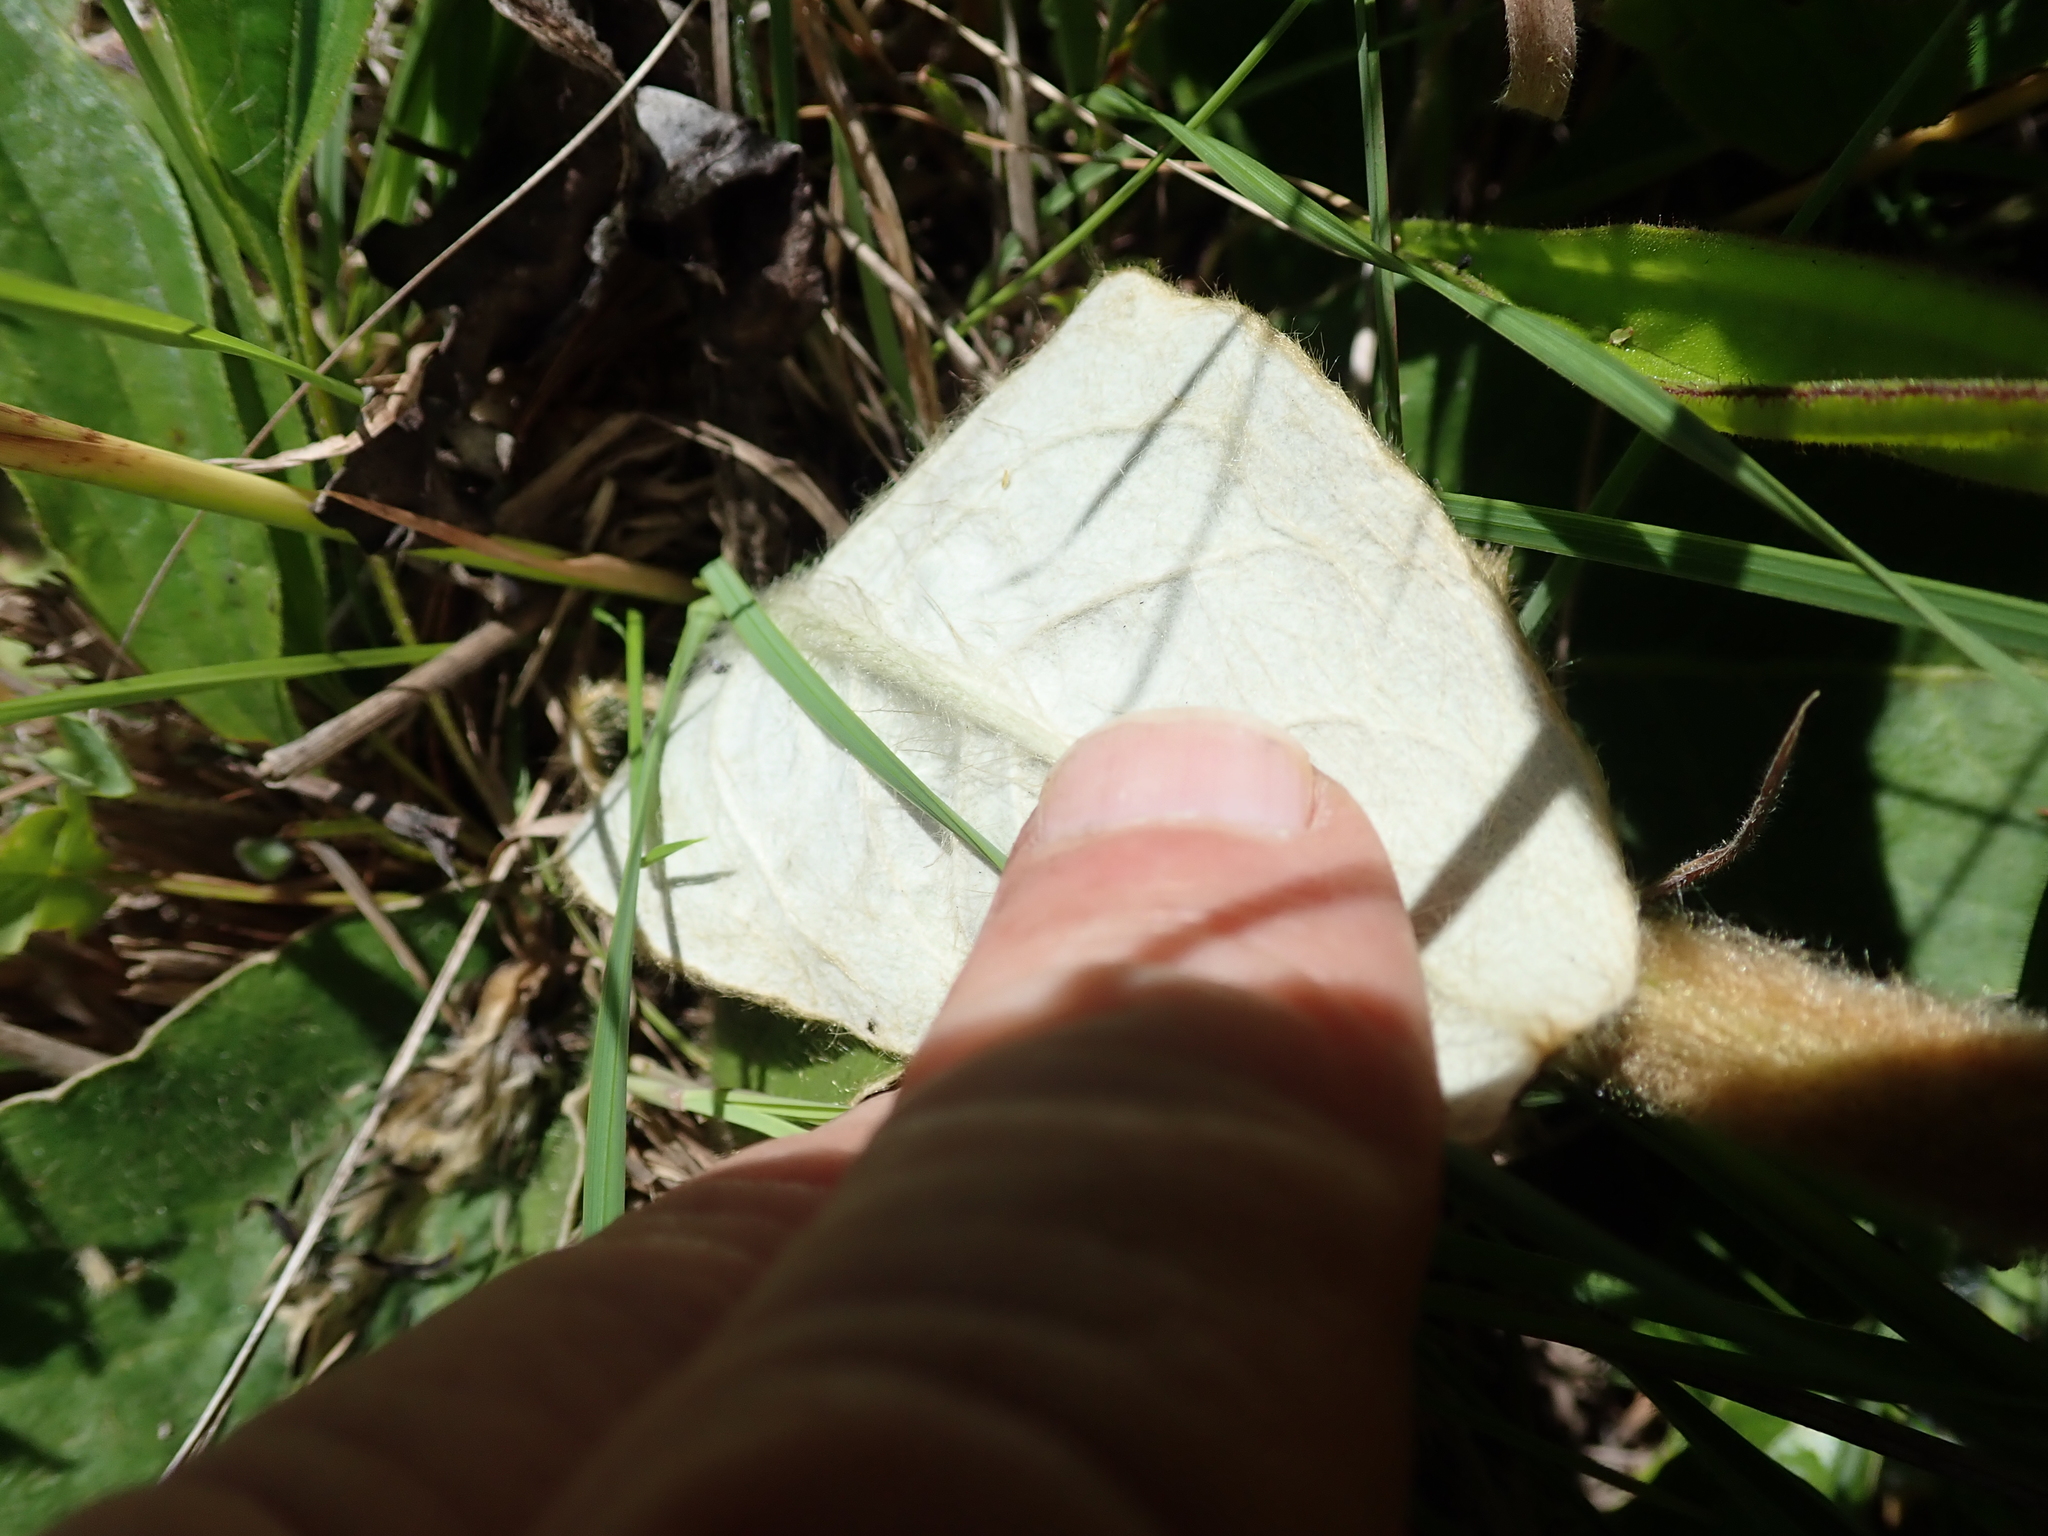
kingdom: Plantae
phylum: Tracheophyta
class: Magnoliopsida
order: Asterales
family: Asteraceae
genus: Gerbera
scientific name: Gerbera ambigua
